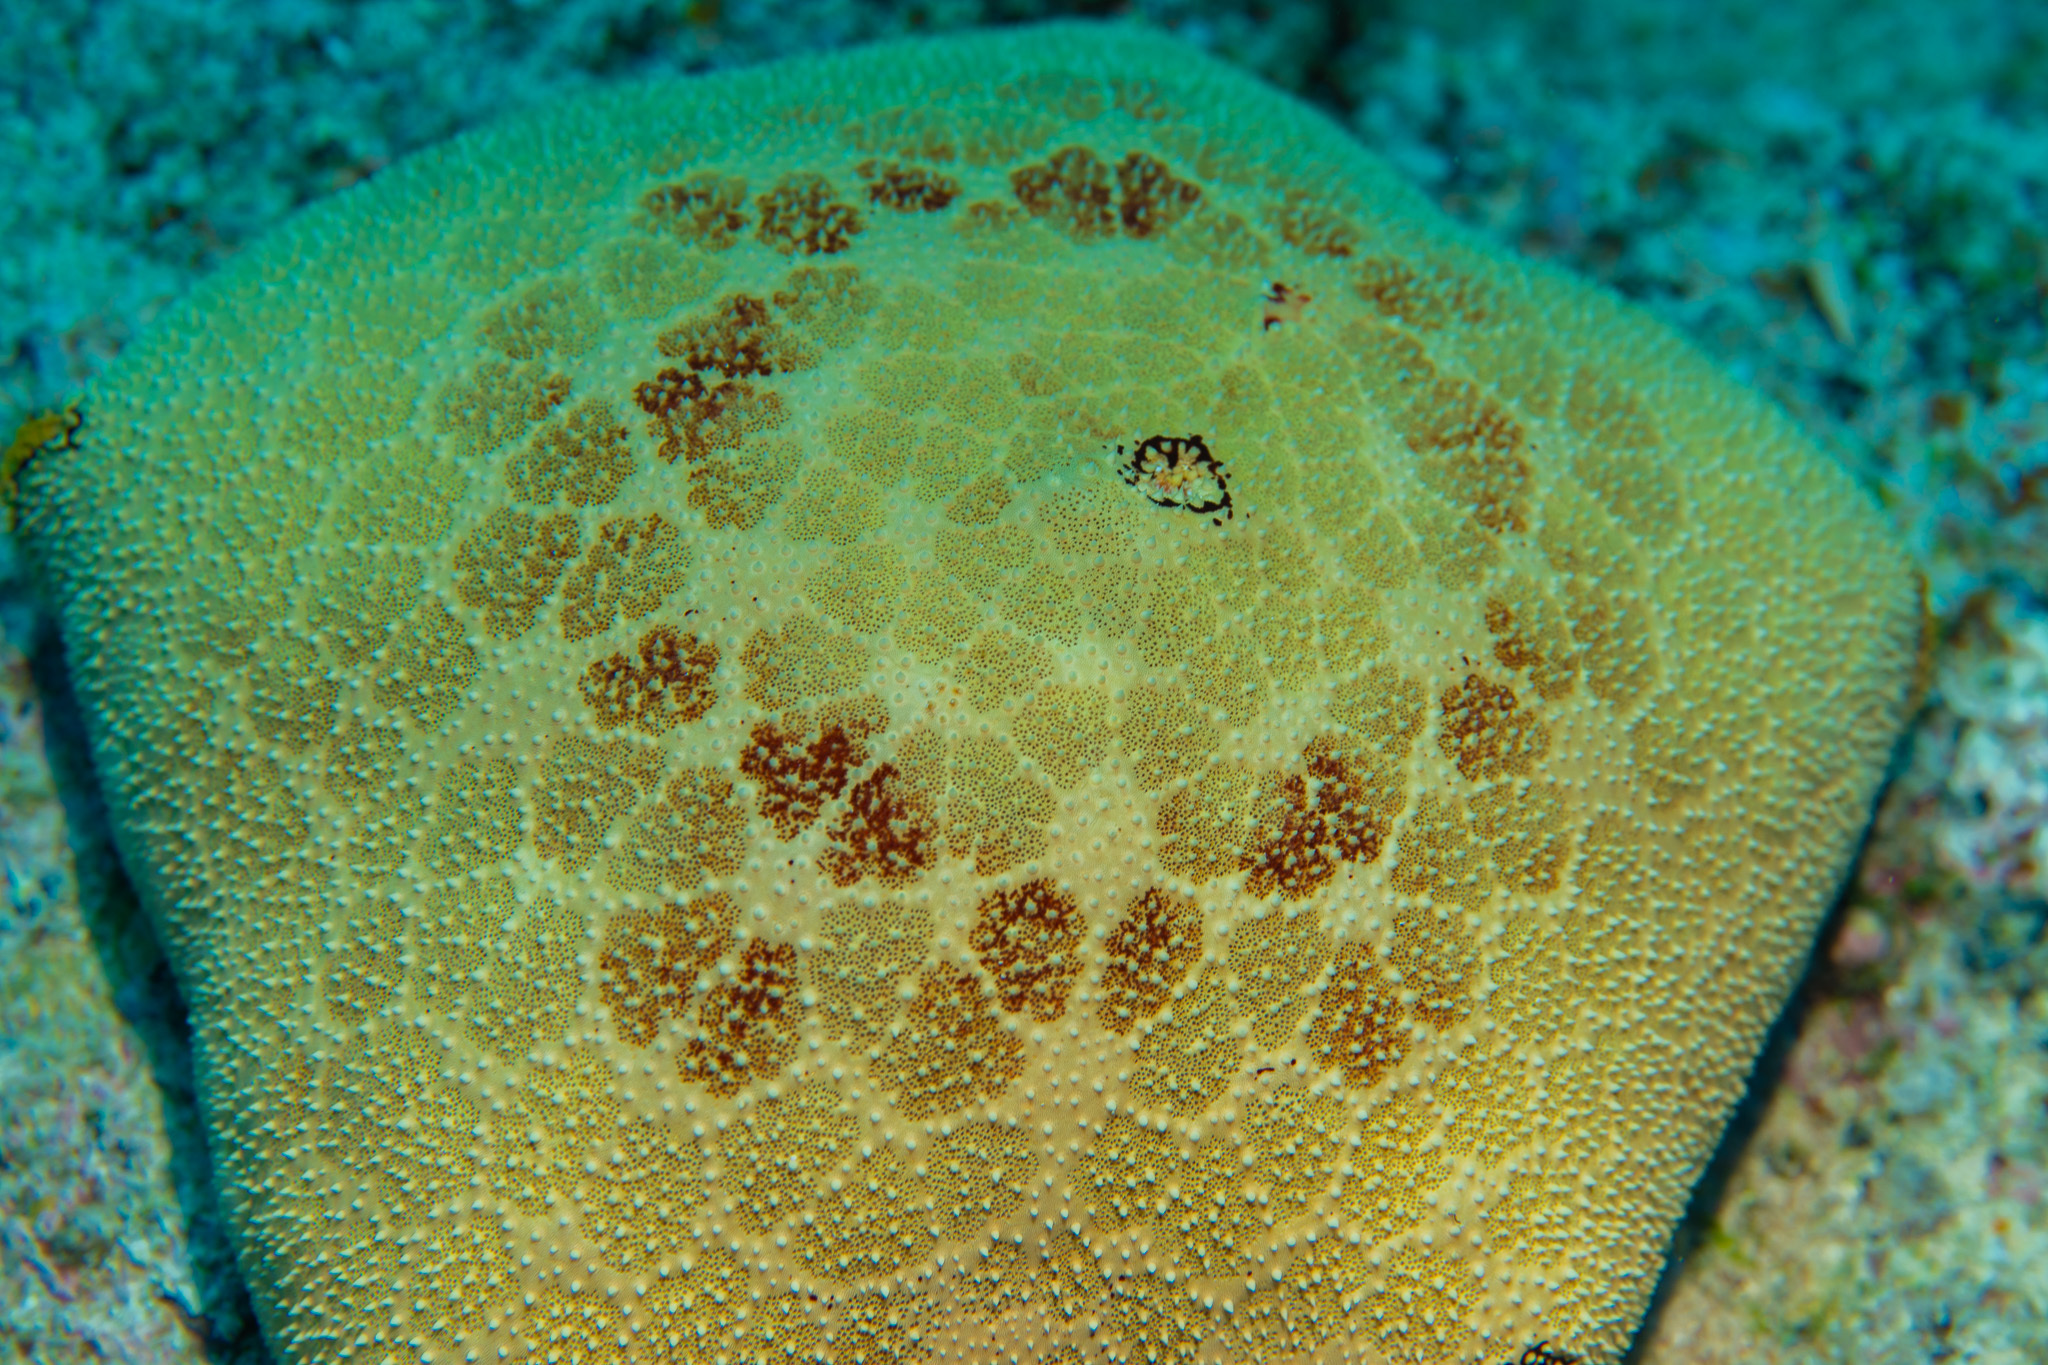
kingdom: Animalia
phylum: Echinodermata
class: Asteroidea
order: Valvatida
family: Oreasteridae
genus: Culcita
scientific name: Culcita novaeguineae
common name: Cushion star
